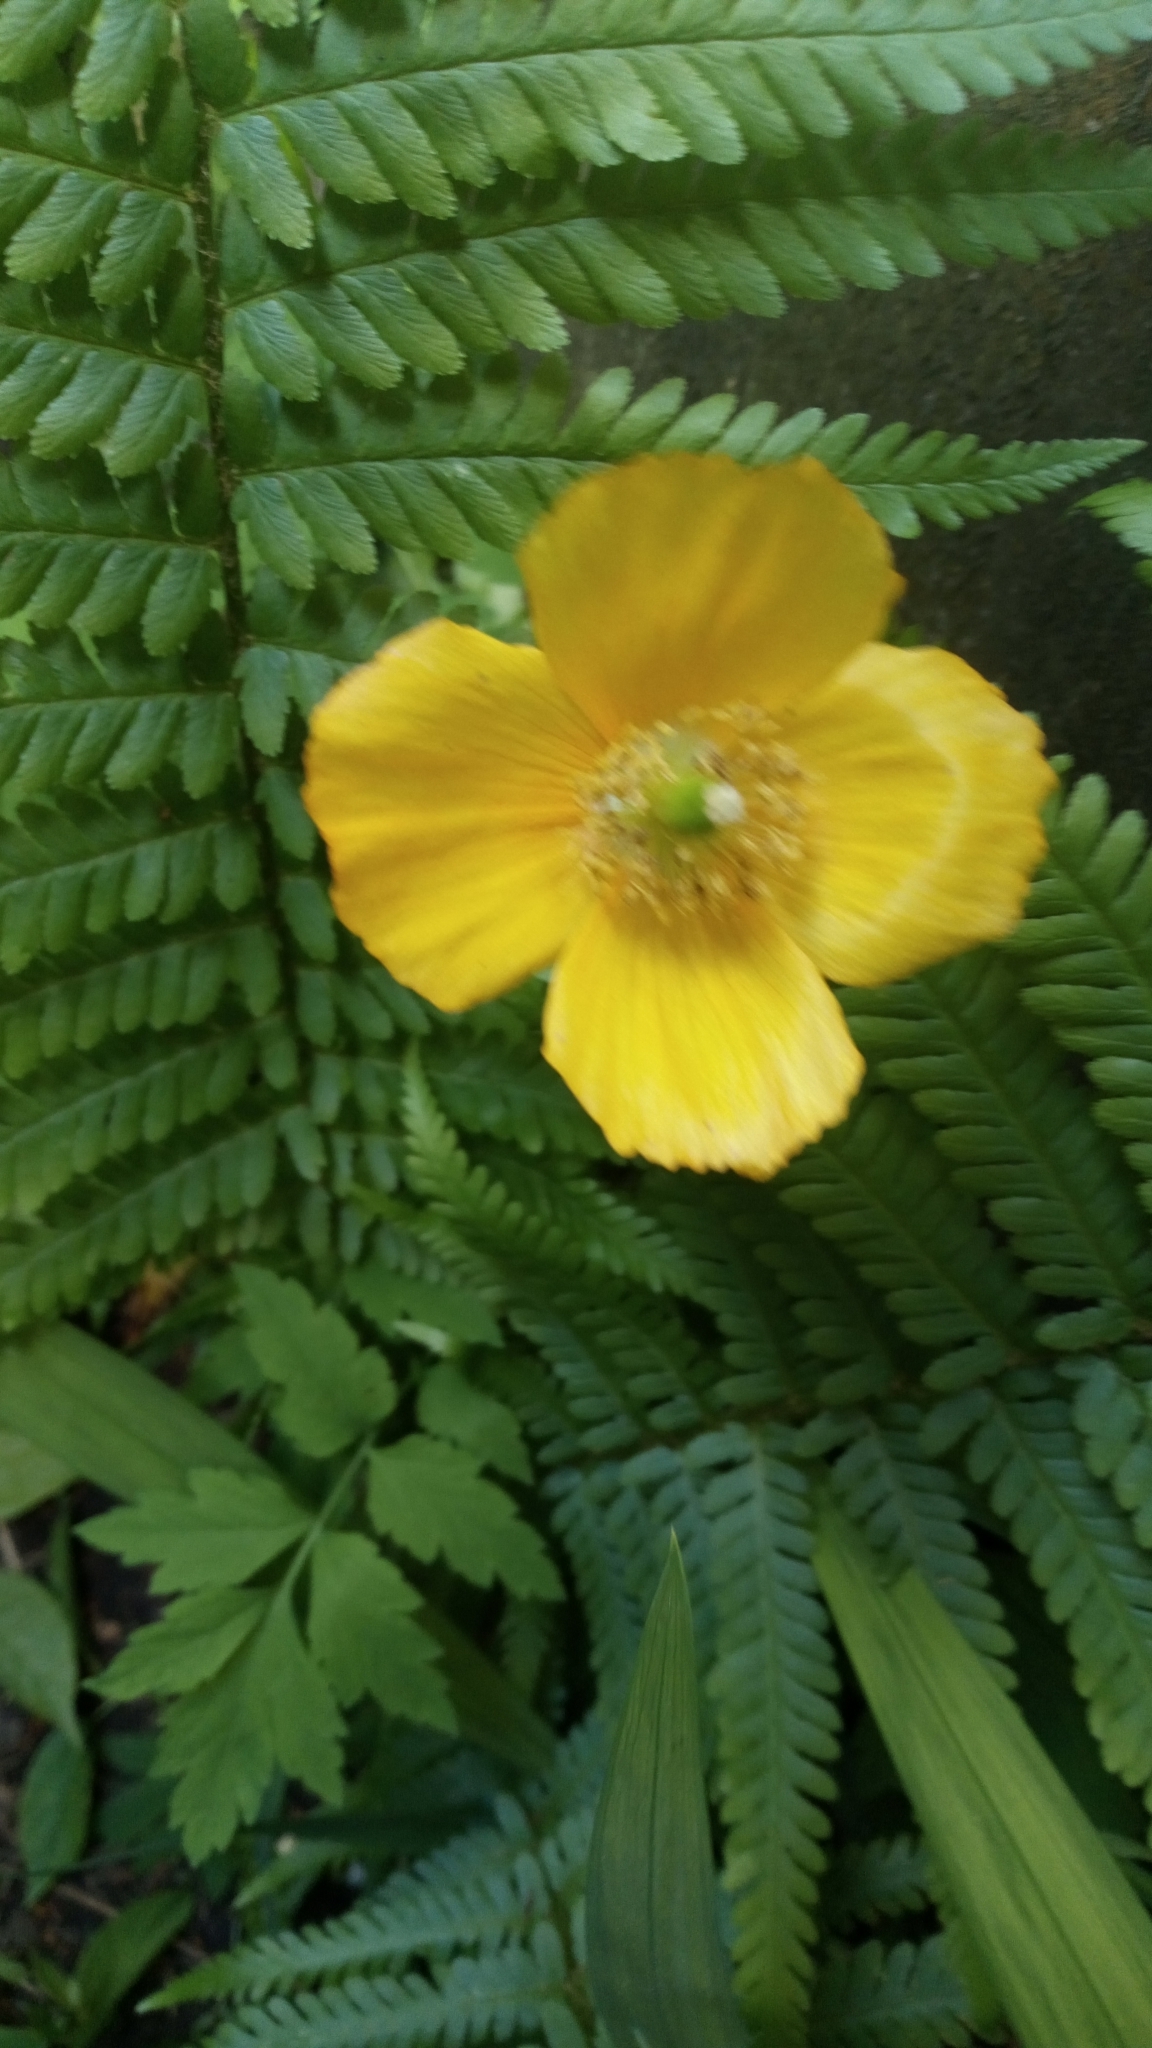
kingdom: Plantae
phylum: Tracheophyta
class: Magnoliopsida
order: Ranunculales
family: Papaveraceae
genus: Papaver
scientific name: Papaver cambricum
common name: Poppy
